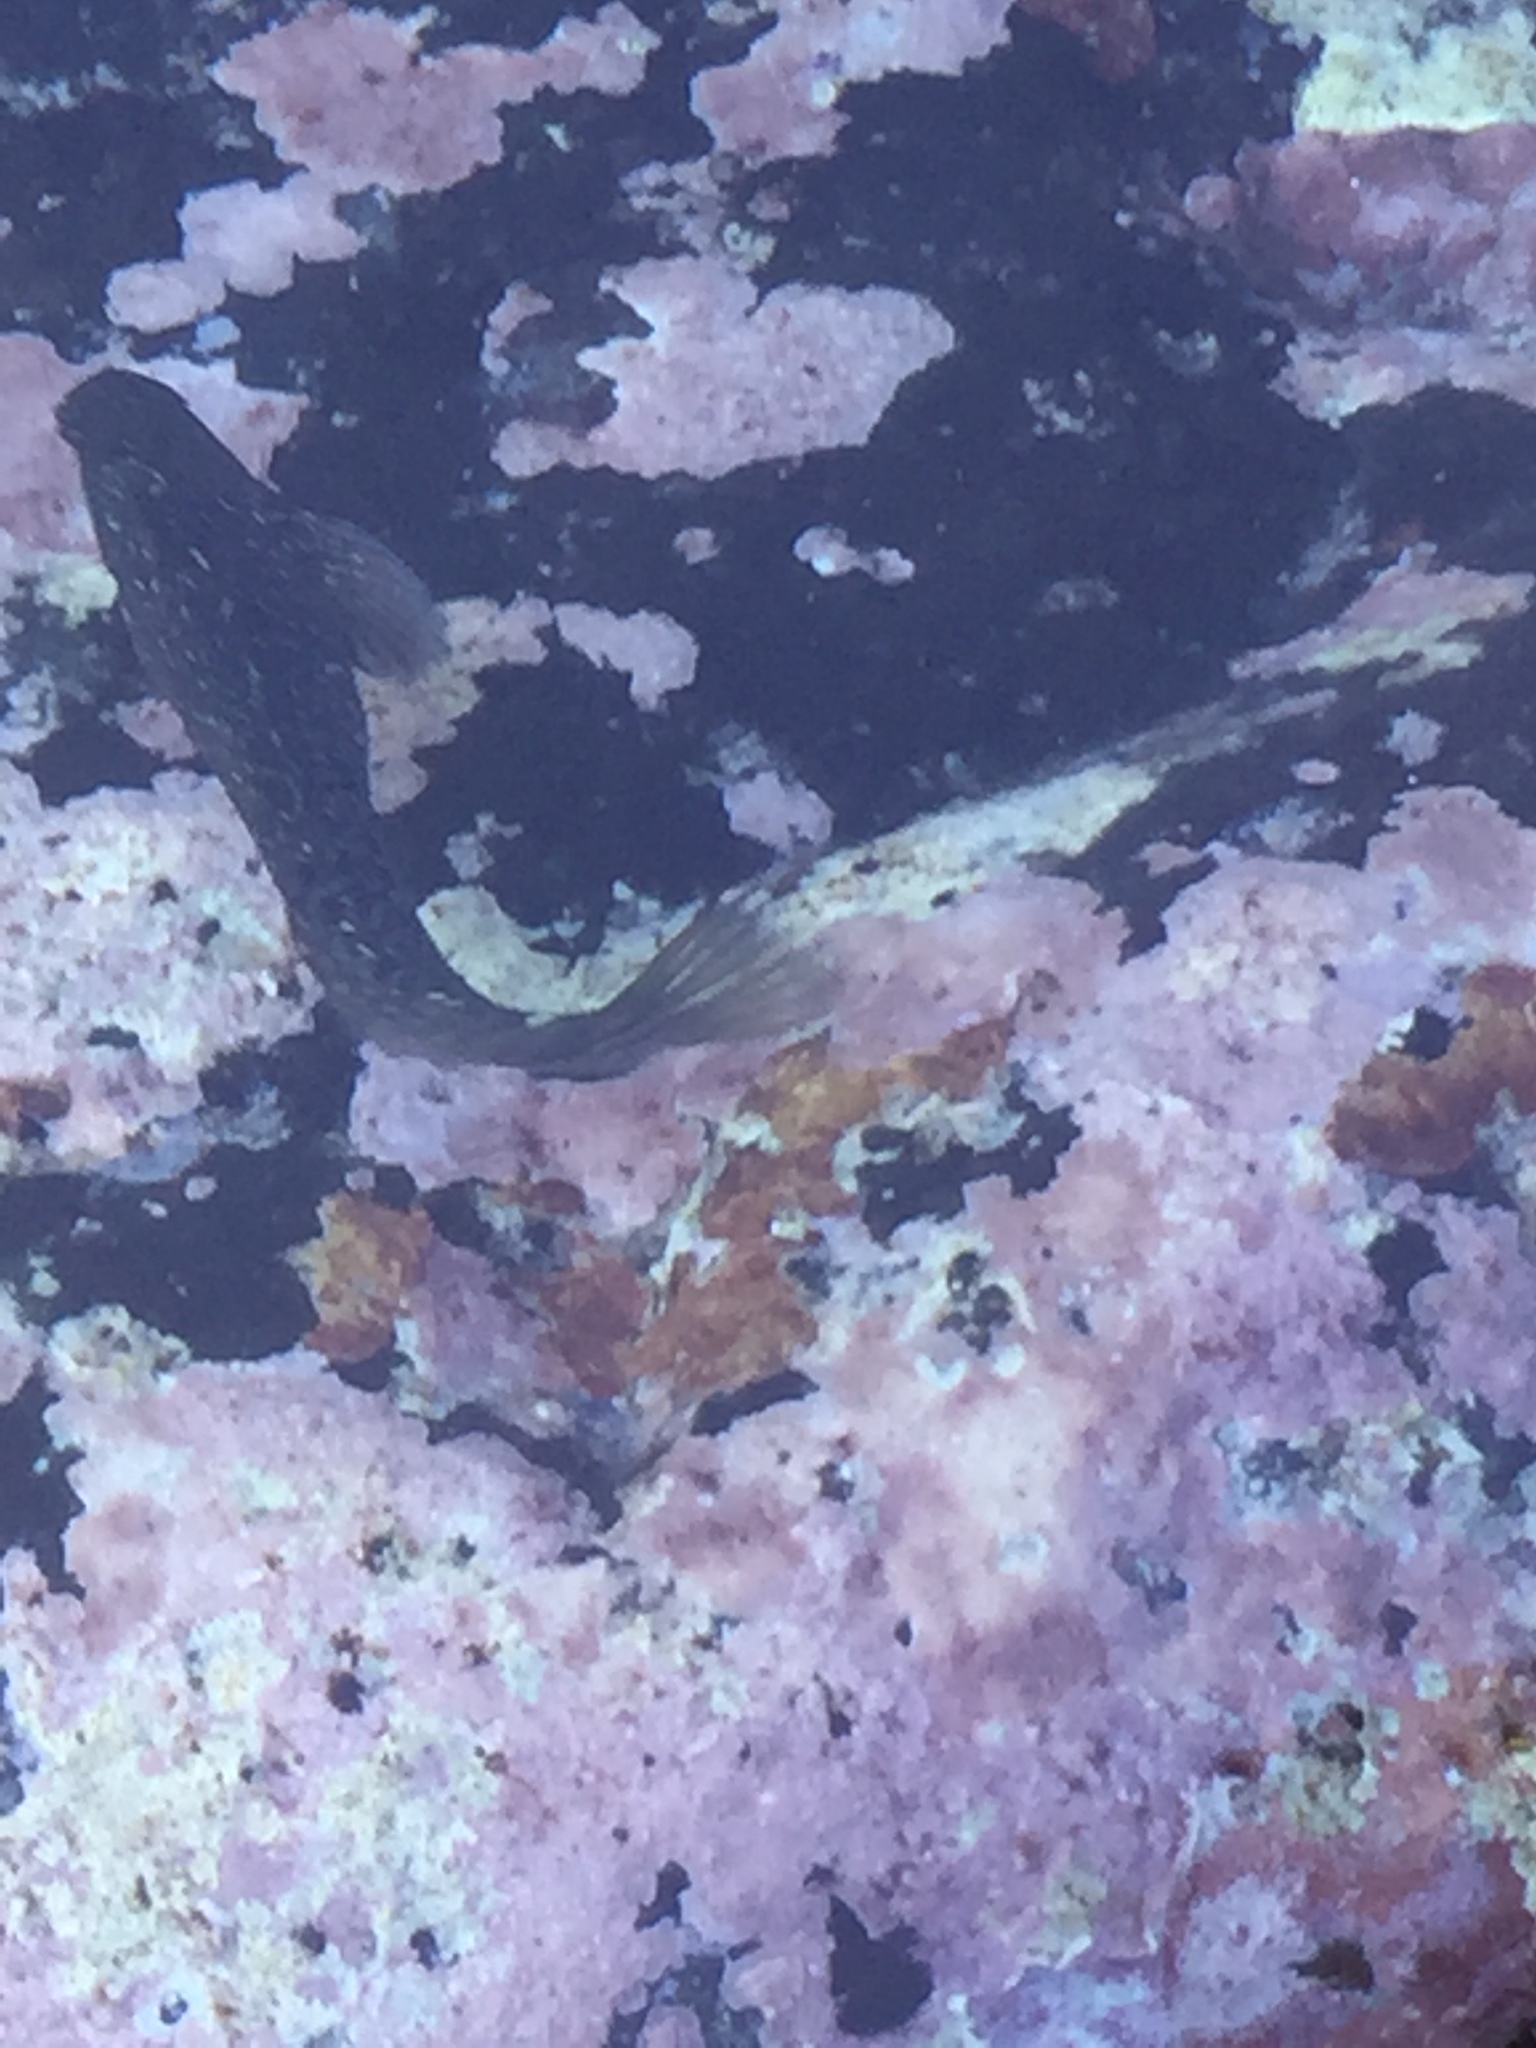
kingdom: Animalia
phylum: Chordata
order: Perciformes
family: Blenniidae
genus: Parablennius
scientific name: Parablennius parvicornis
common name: Rock-pool blenny
